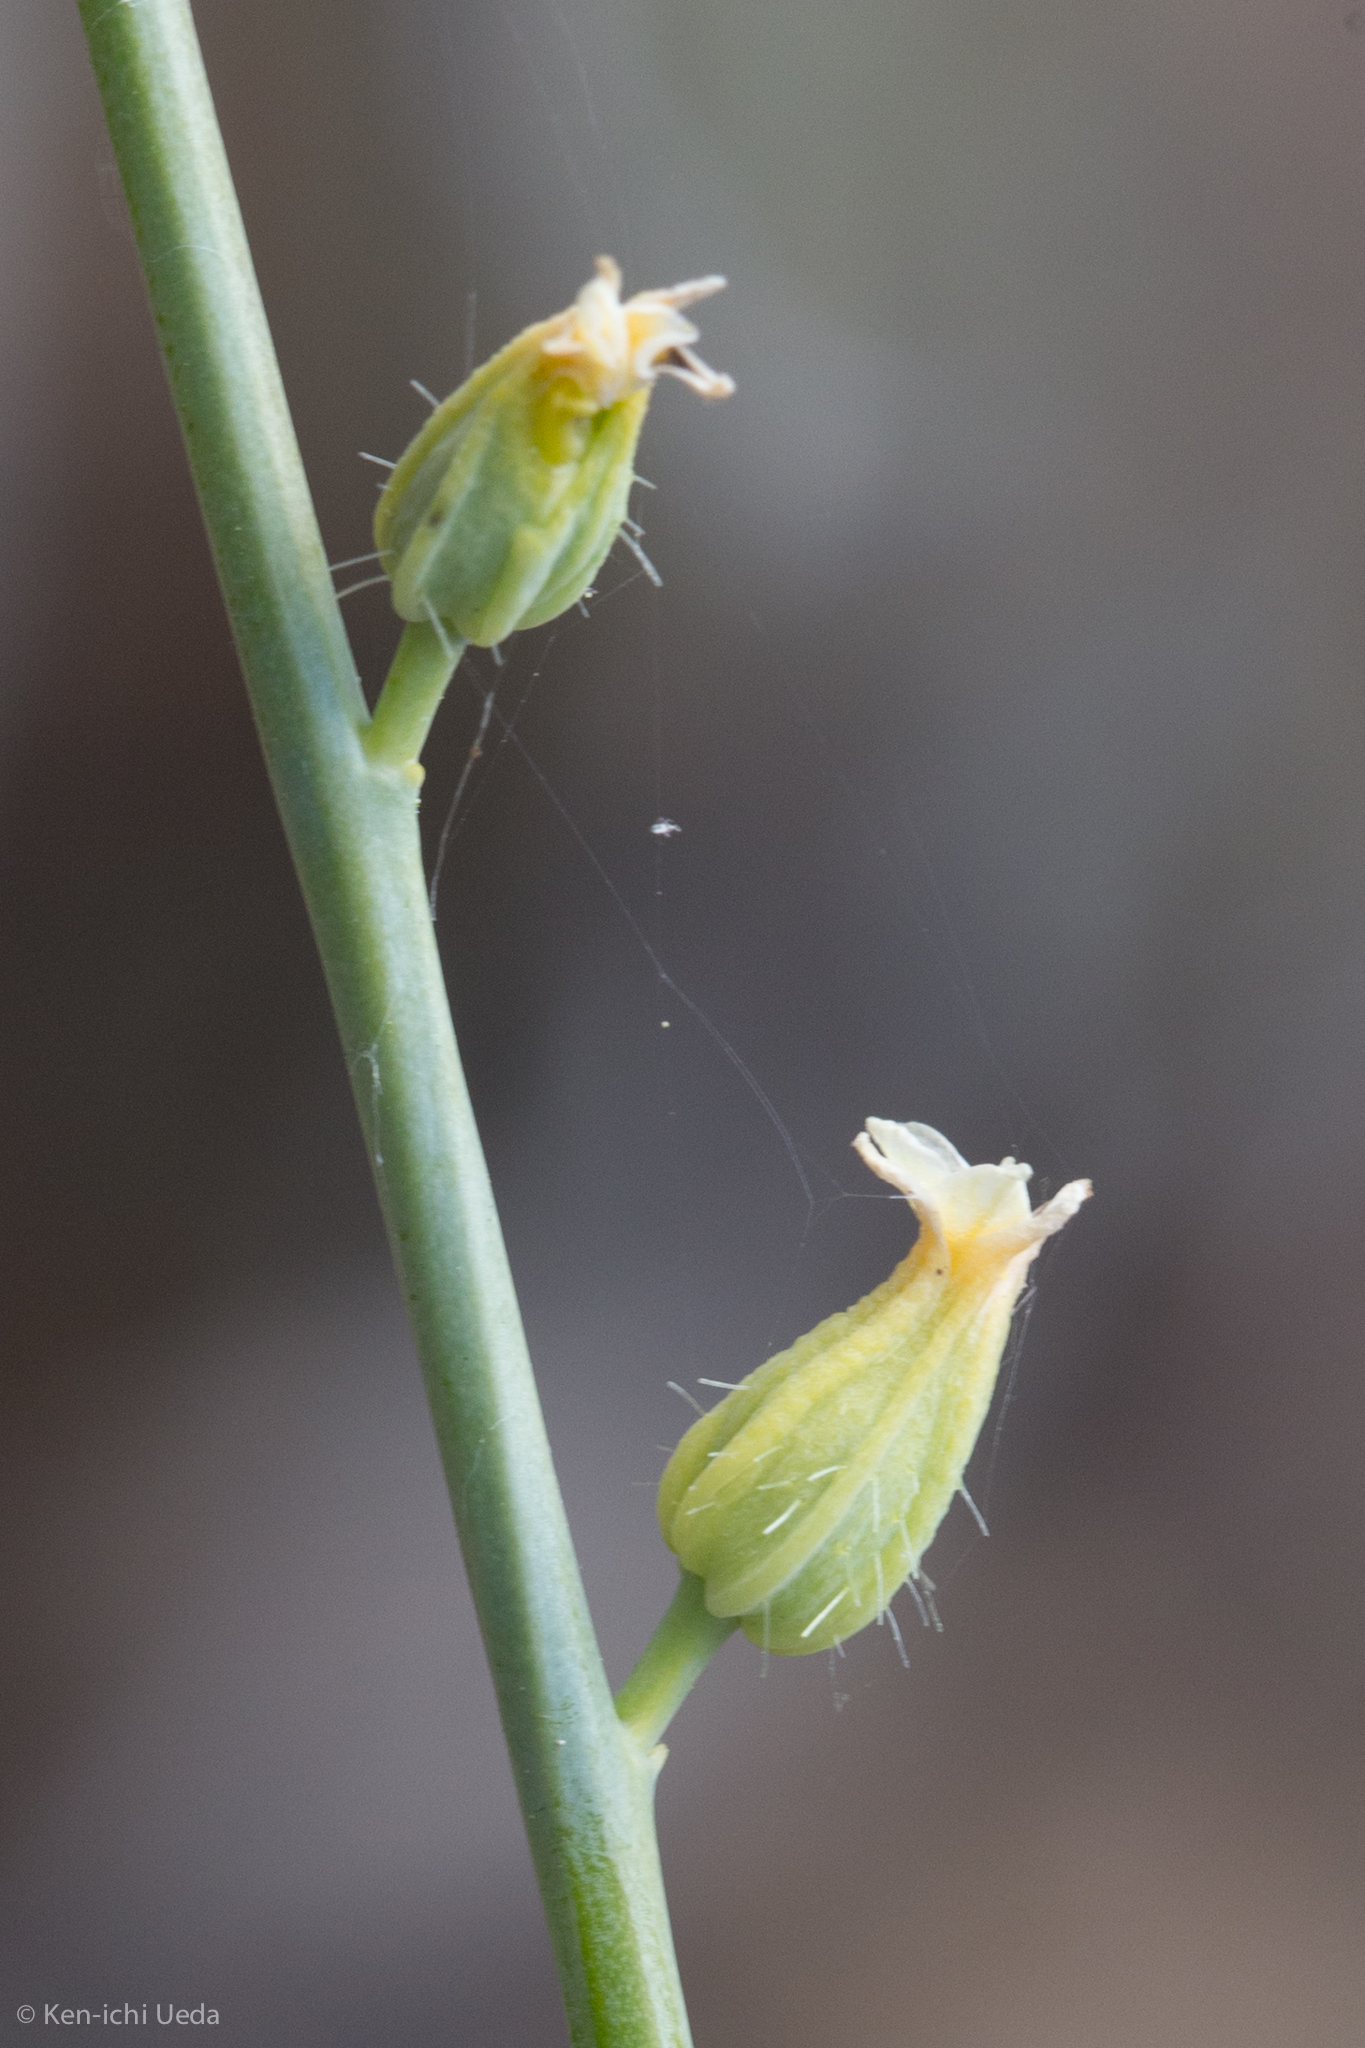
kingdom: Plantae
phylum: Tracheophyta
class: Magnoliopsida
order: Brassicales
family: Brassicaceae
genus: Streptanthus
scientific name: Streptanthus morrisonii
